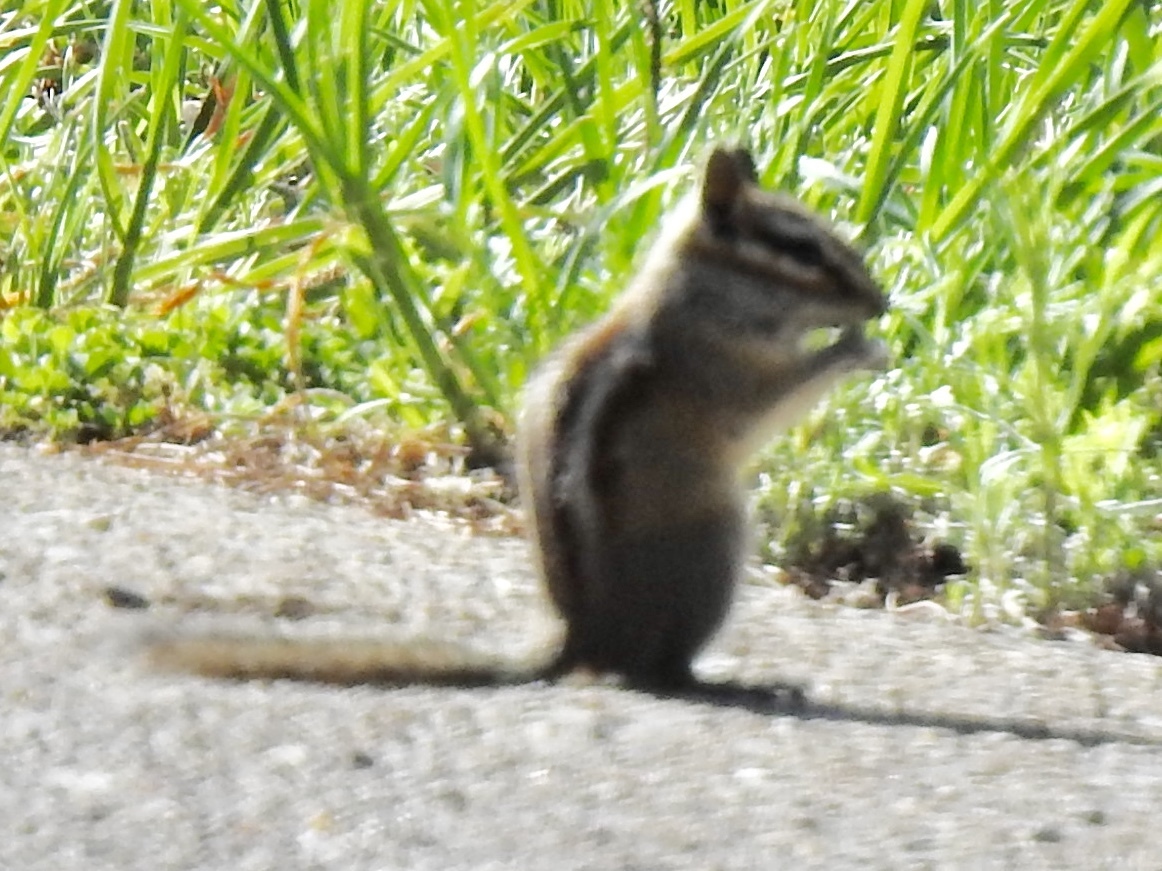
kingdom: Animalia
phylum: Chordata
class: Mammalia
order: Rodentia
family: Sciuridae
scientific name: Sciuridae
